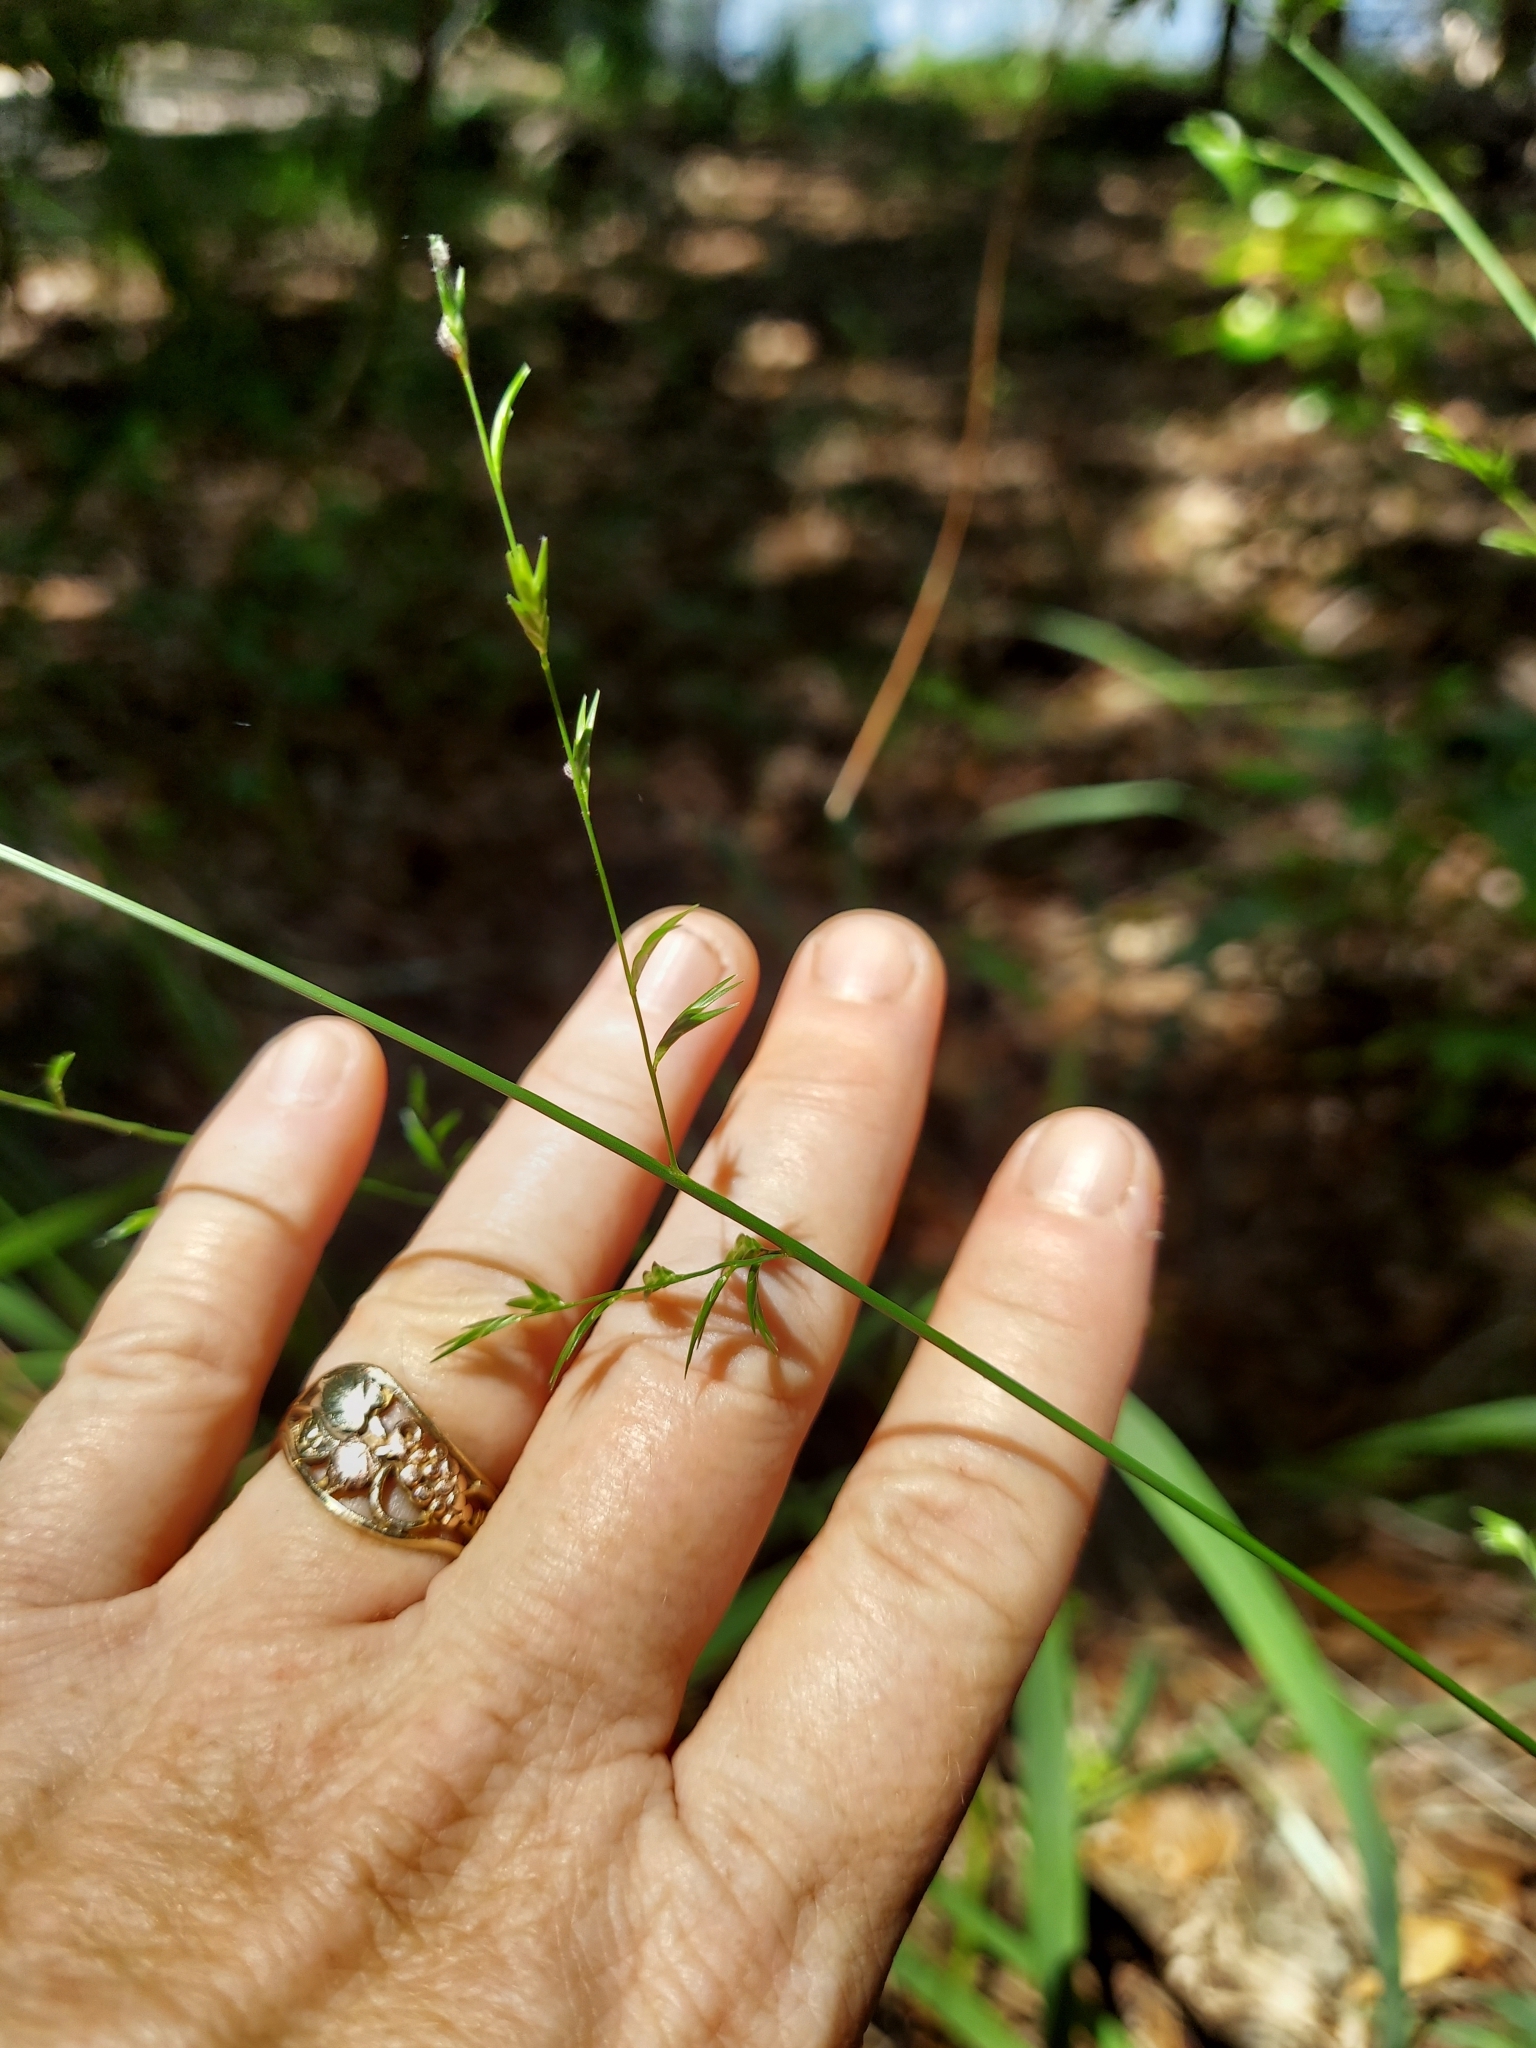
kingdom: Plantae
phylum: Tracheophyta
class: Liliopsida
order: Poales
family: Poaceae
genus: Chasmanthium
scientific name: Chasmanthium laxum
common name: Slender chasmanthium
